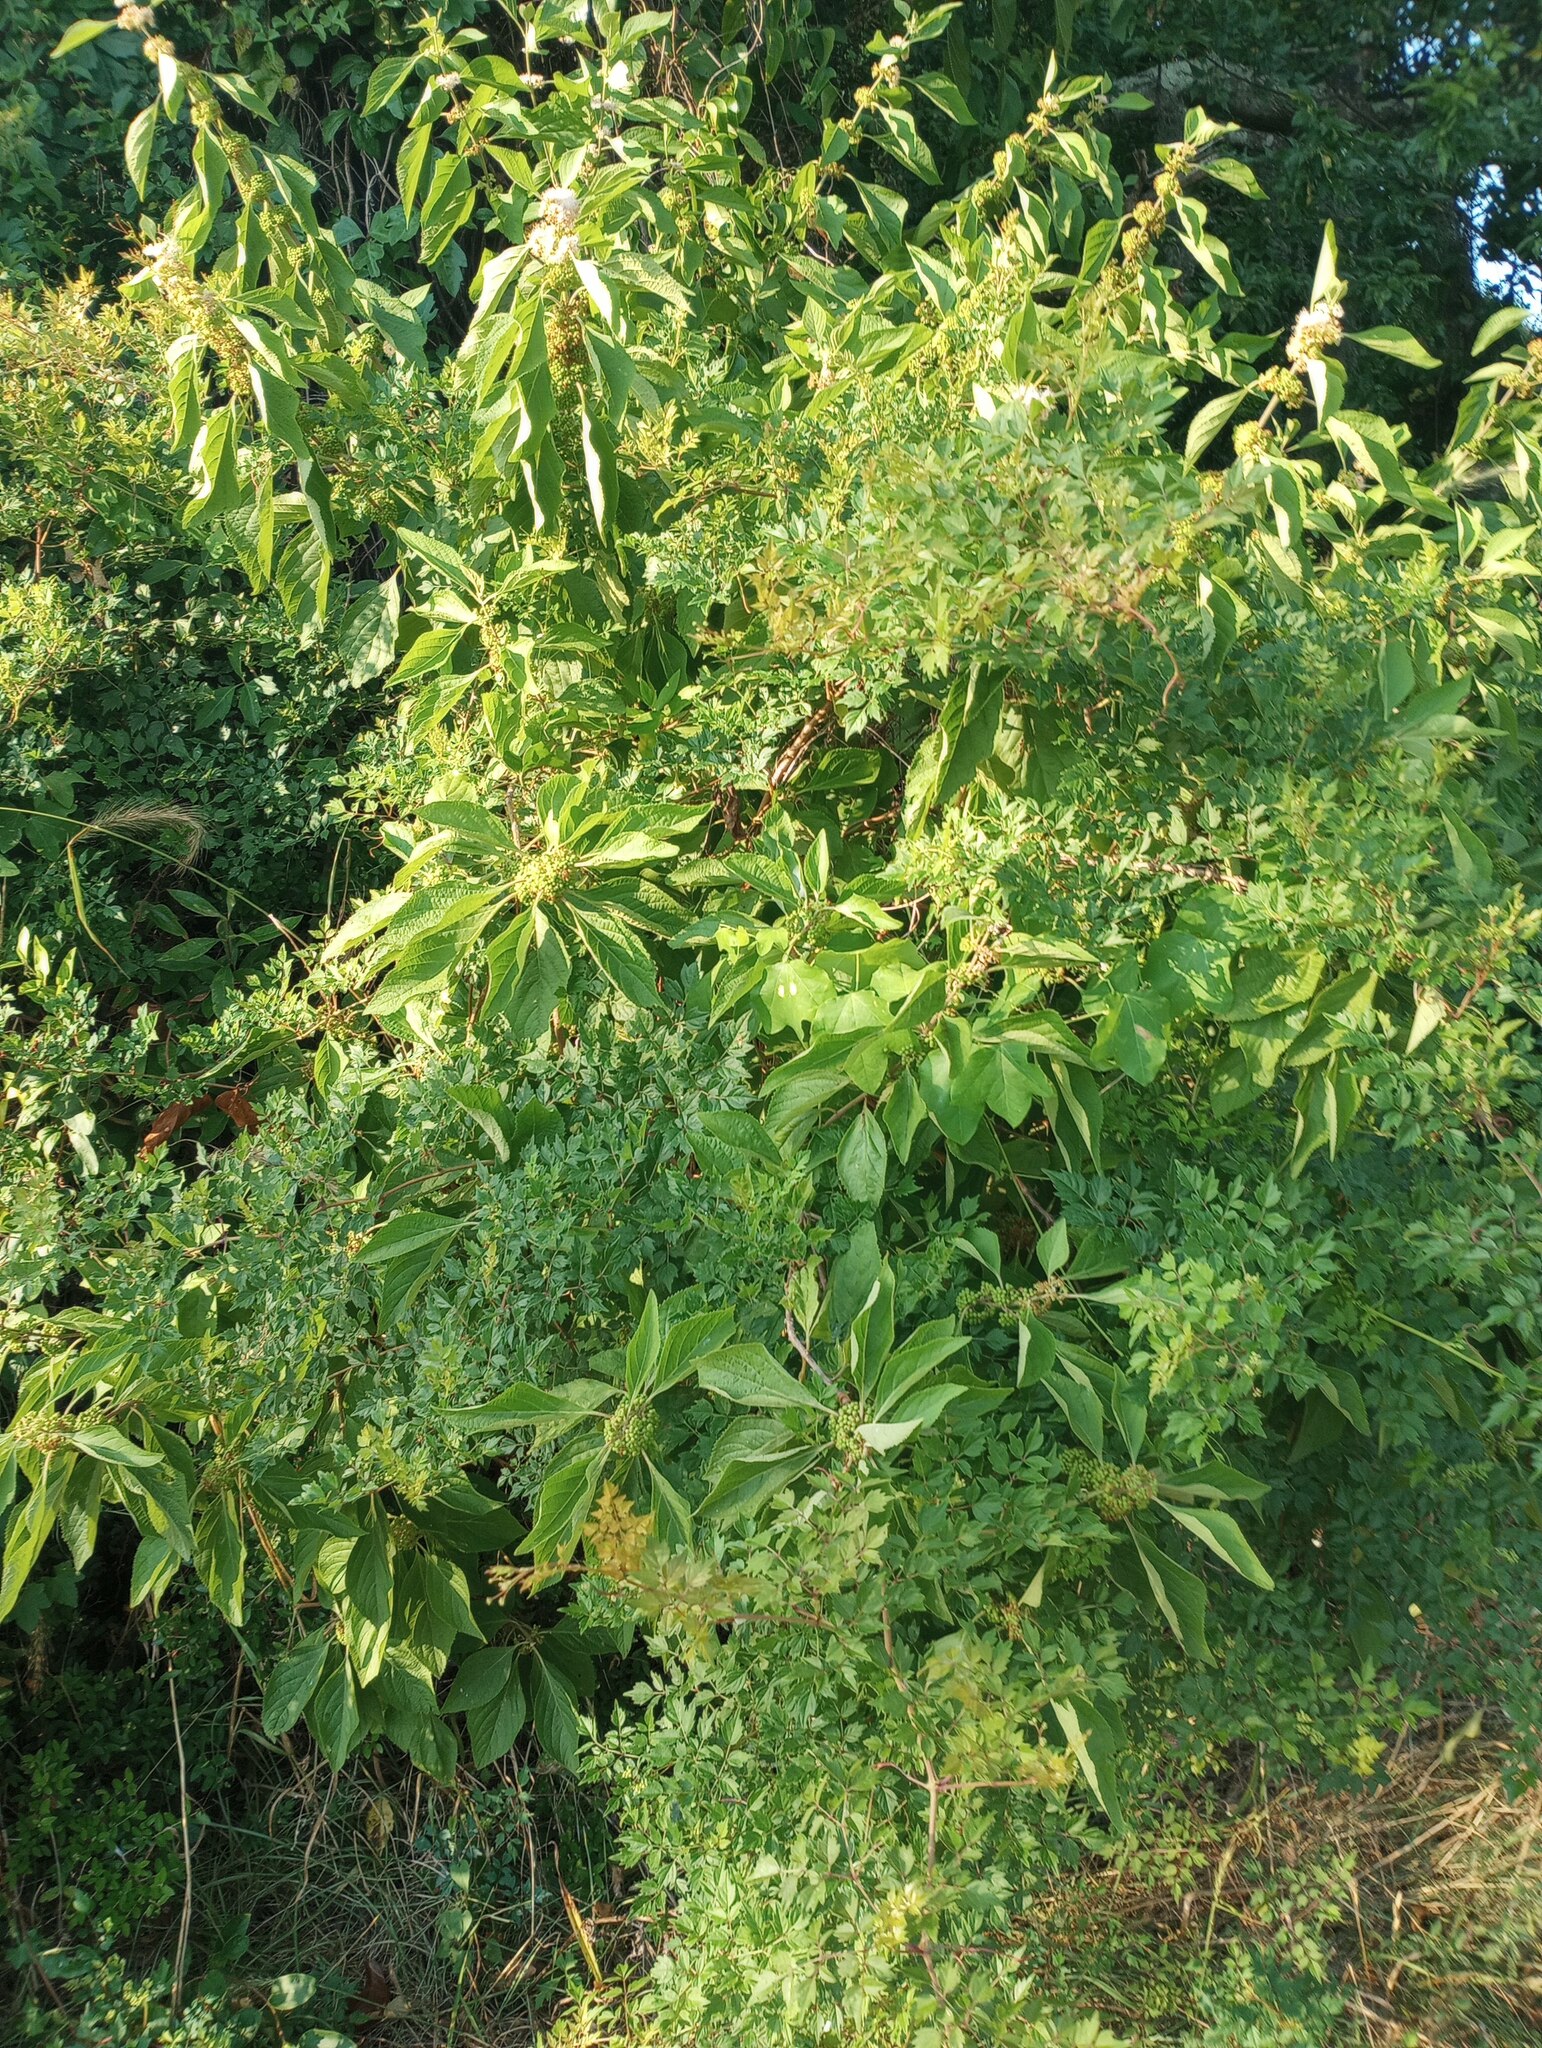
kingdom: Plantae
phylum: Tracheophyta
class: Magnoliopsida
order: Lamiales
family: Lamiaceae
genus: Callicarpa
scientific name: Callicarpa americana
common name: American beautyberry
